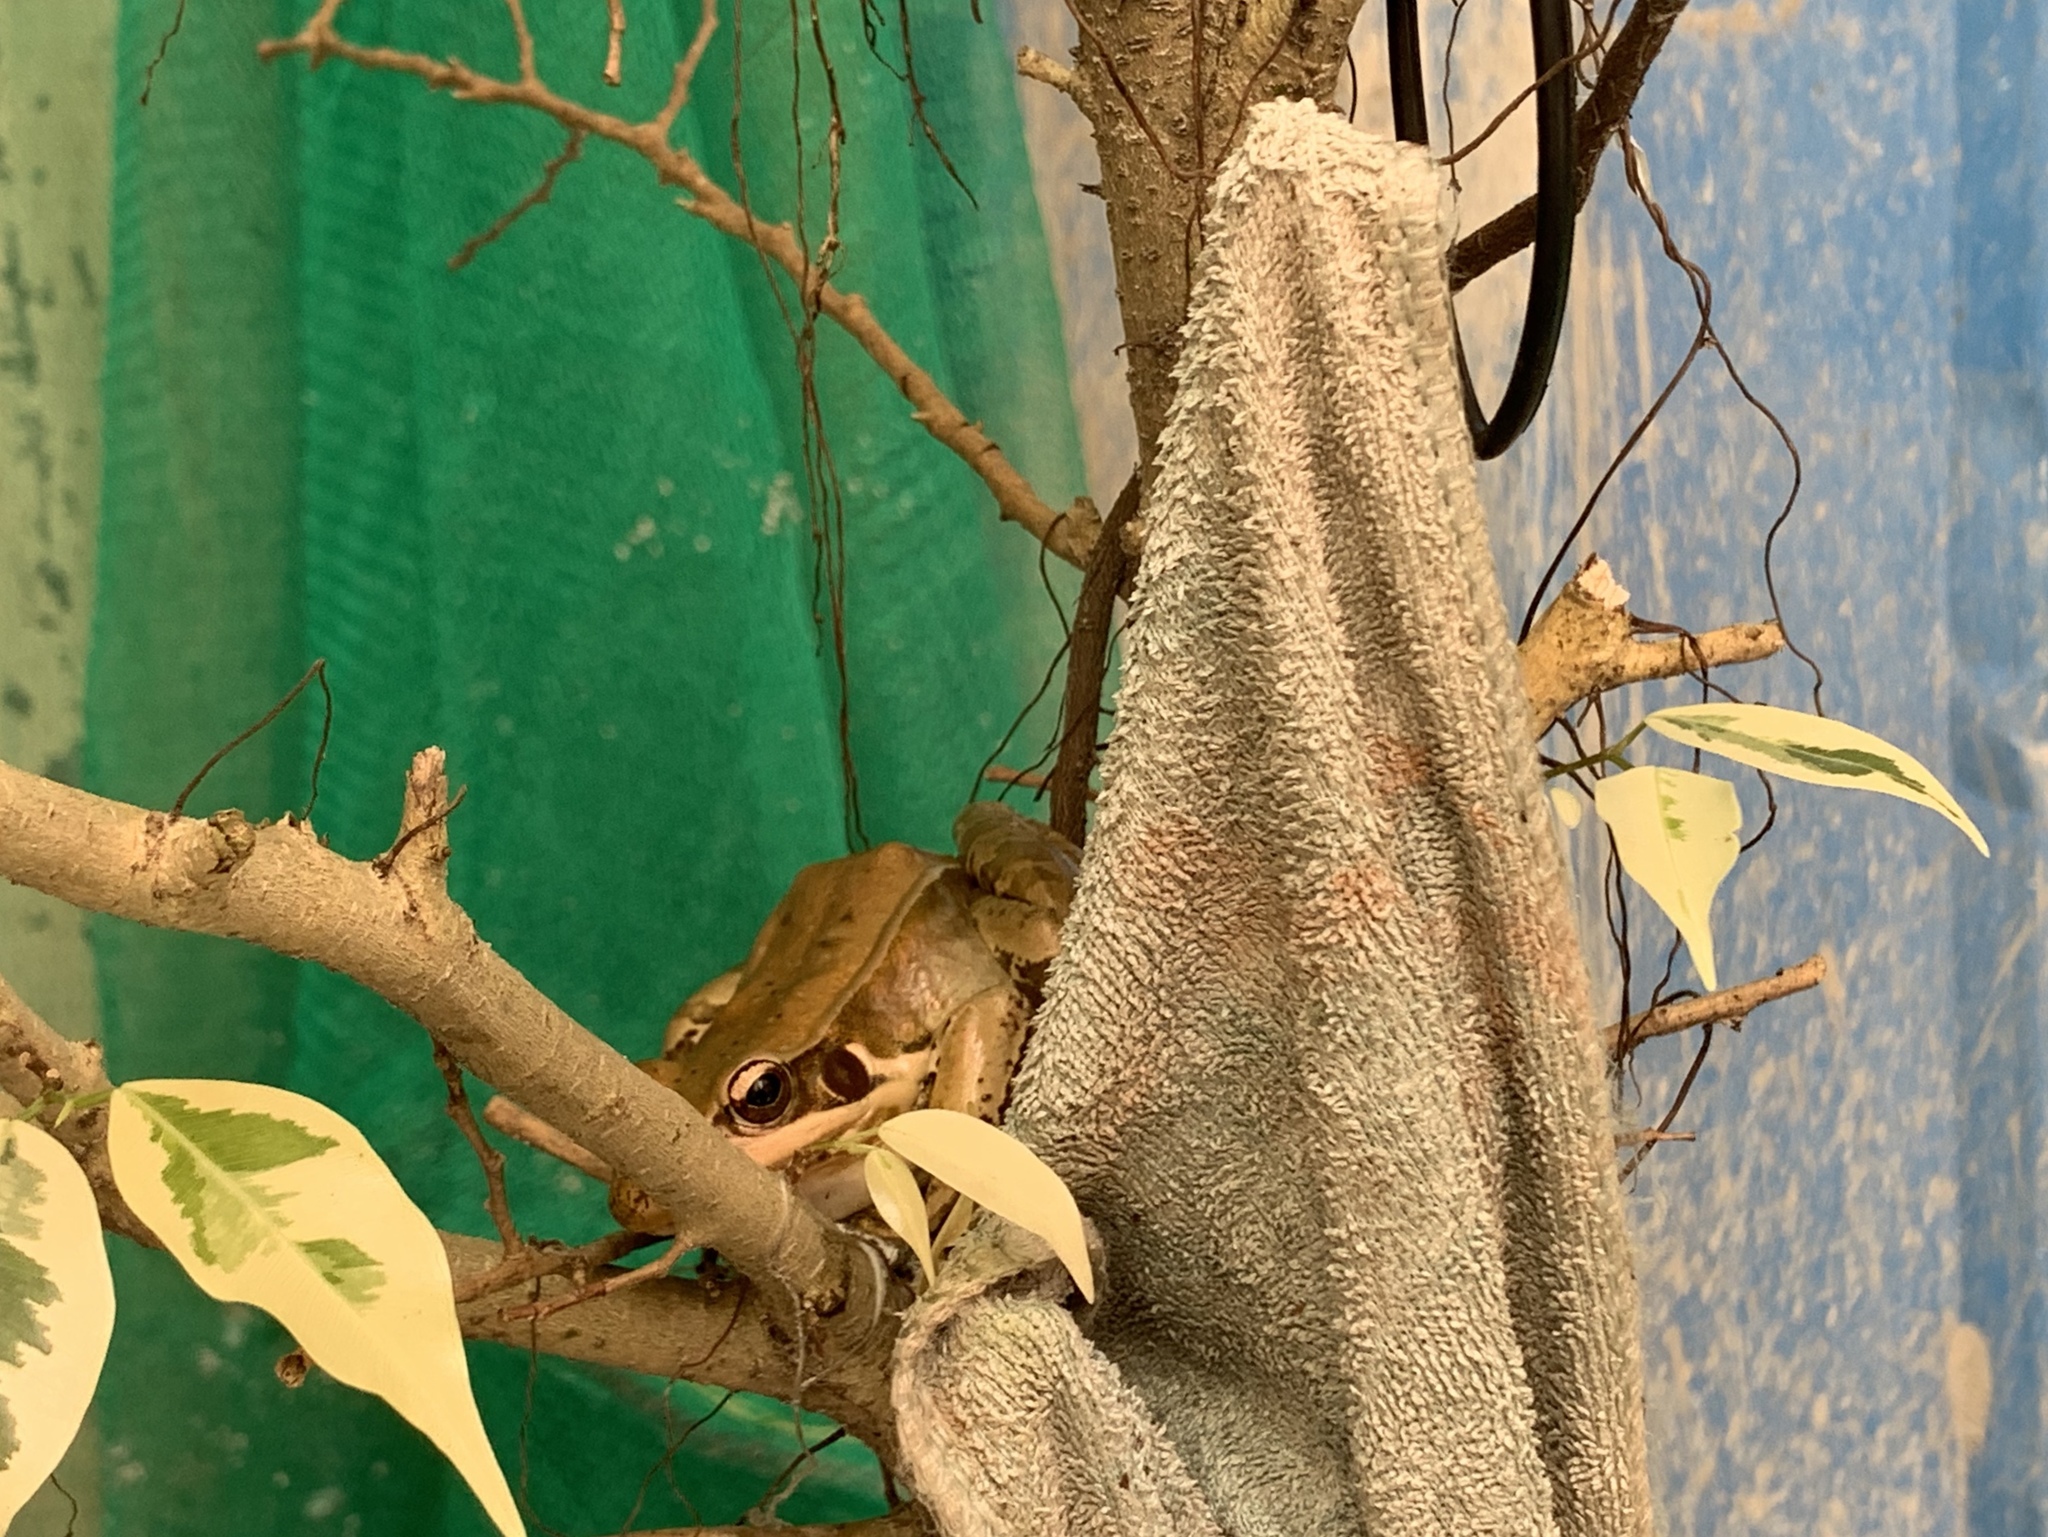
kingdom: Animalia
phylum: Chordata
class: Amphibia
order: Anura
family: Ranidae
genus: Sylvirana
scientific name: Sylvirana guentheri
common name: Guenther's amoy frog
